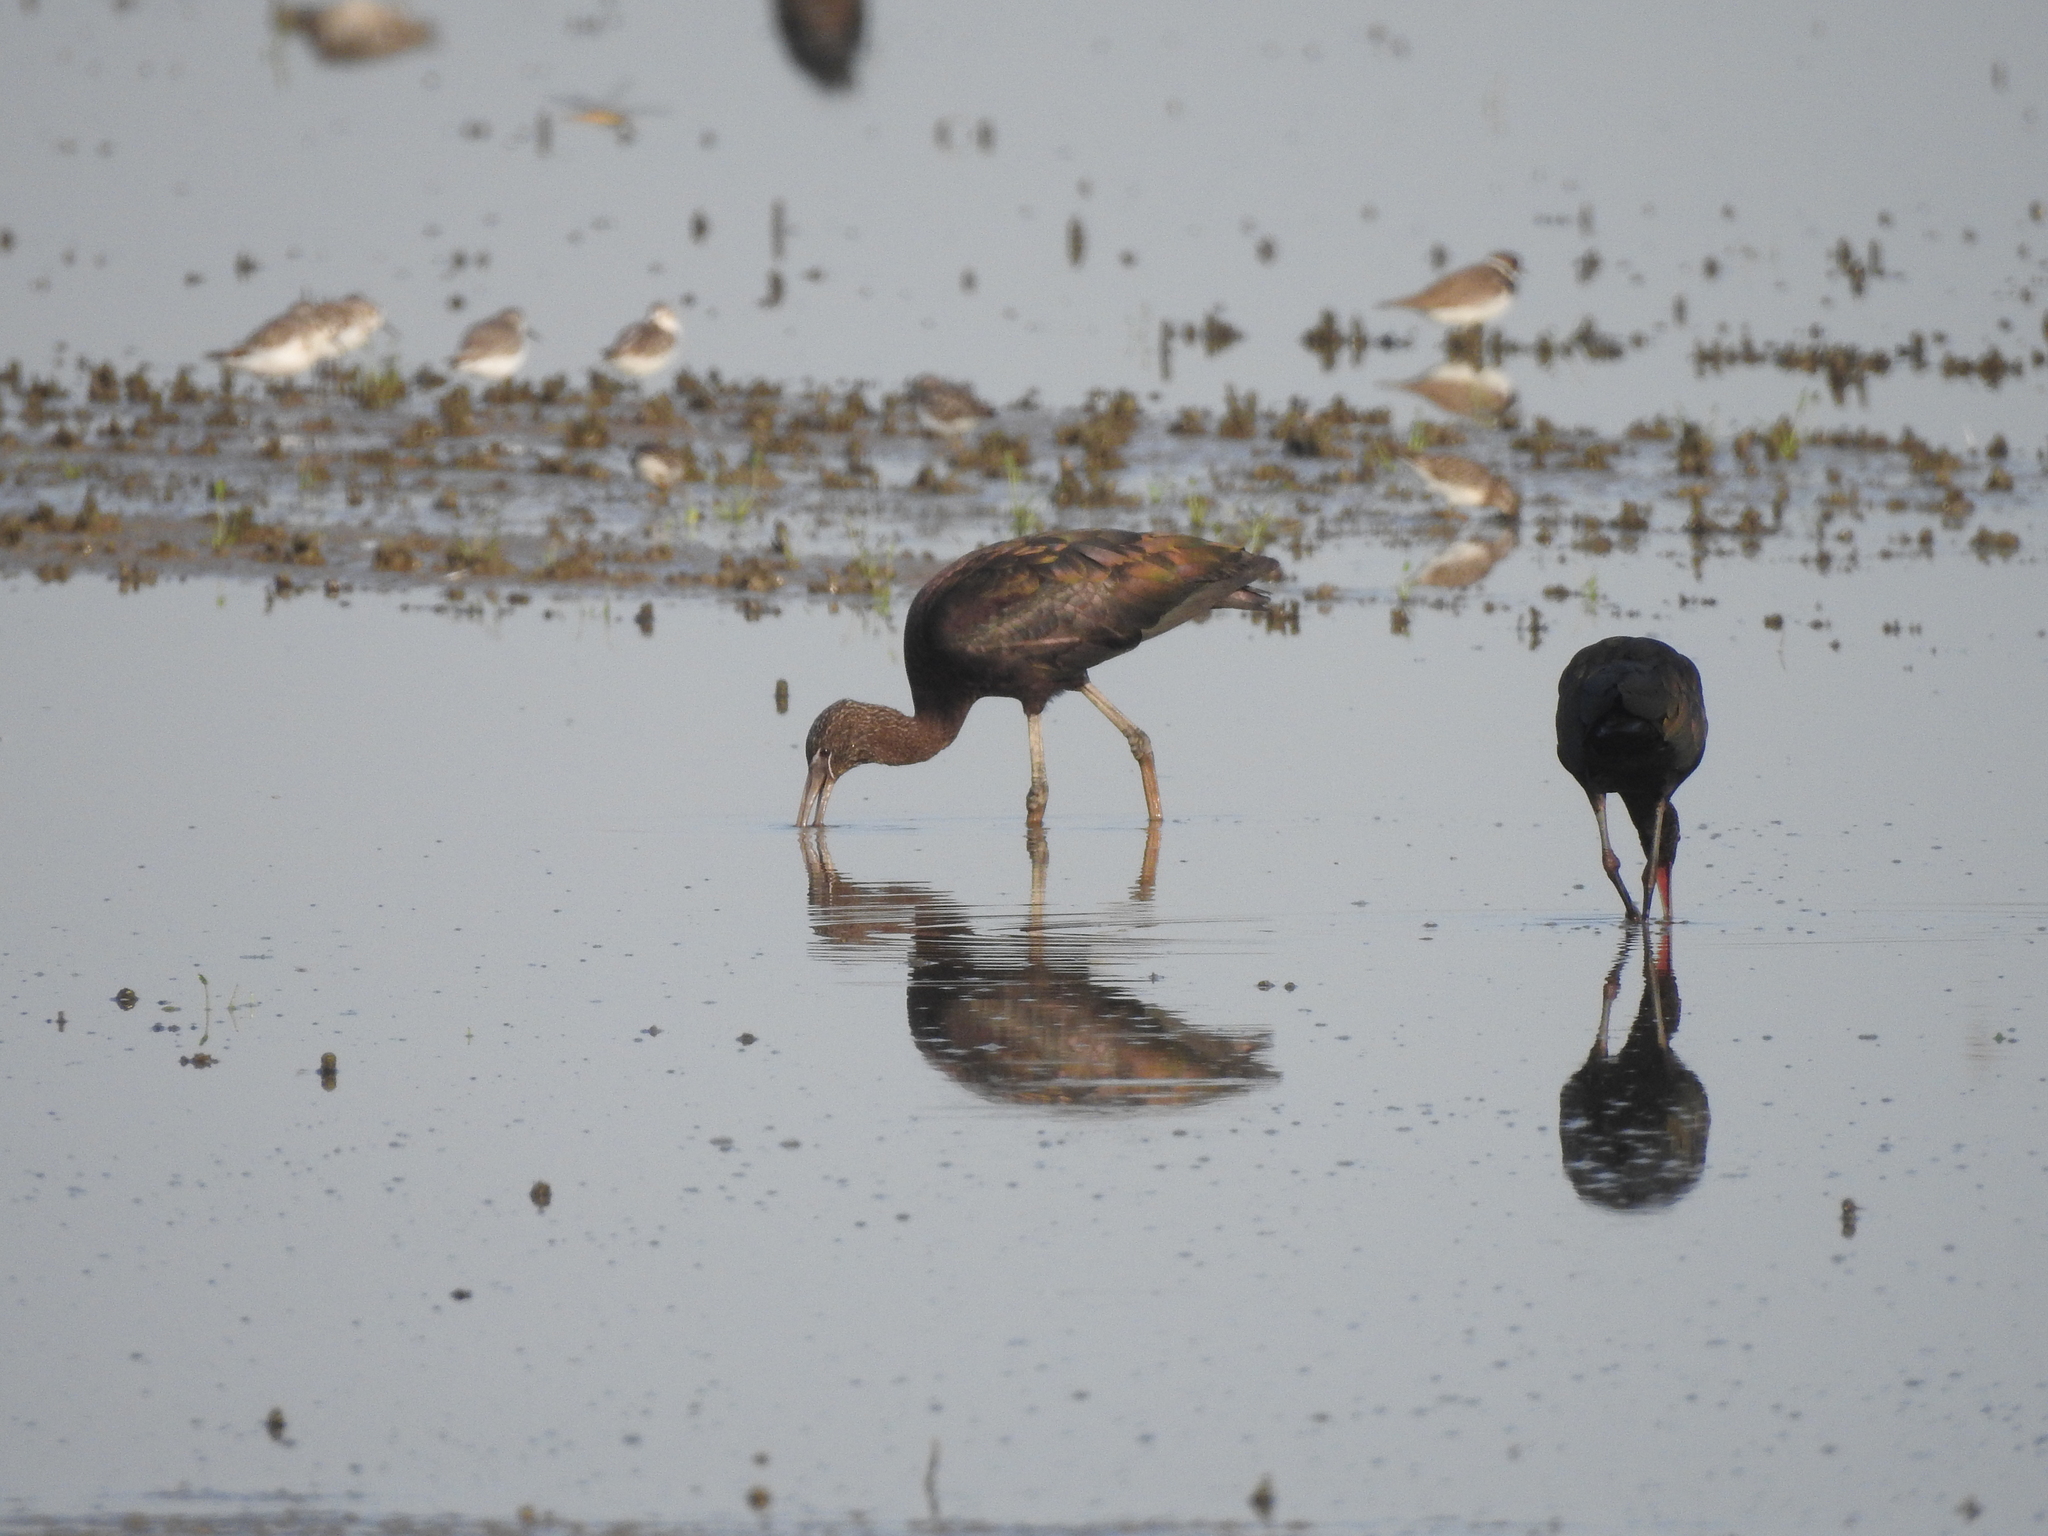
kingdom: Animalia
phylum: Chordata
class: Aves
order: Pelecaniformes
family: Threskiornithidae
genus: Plegadis
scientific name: Plegadis falcinellus
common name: Glossy ibis
